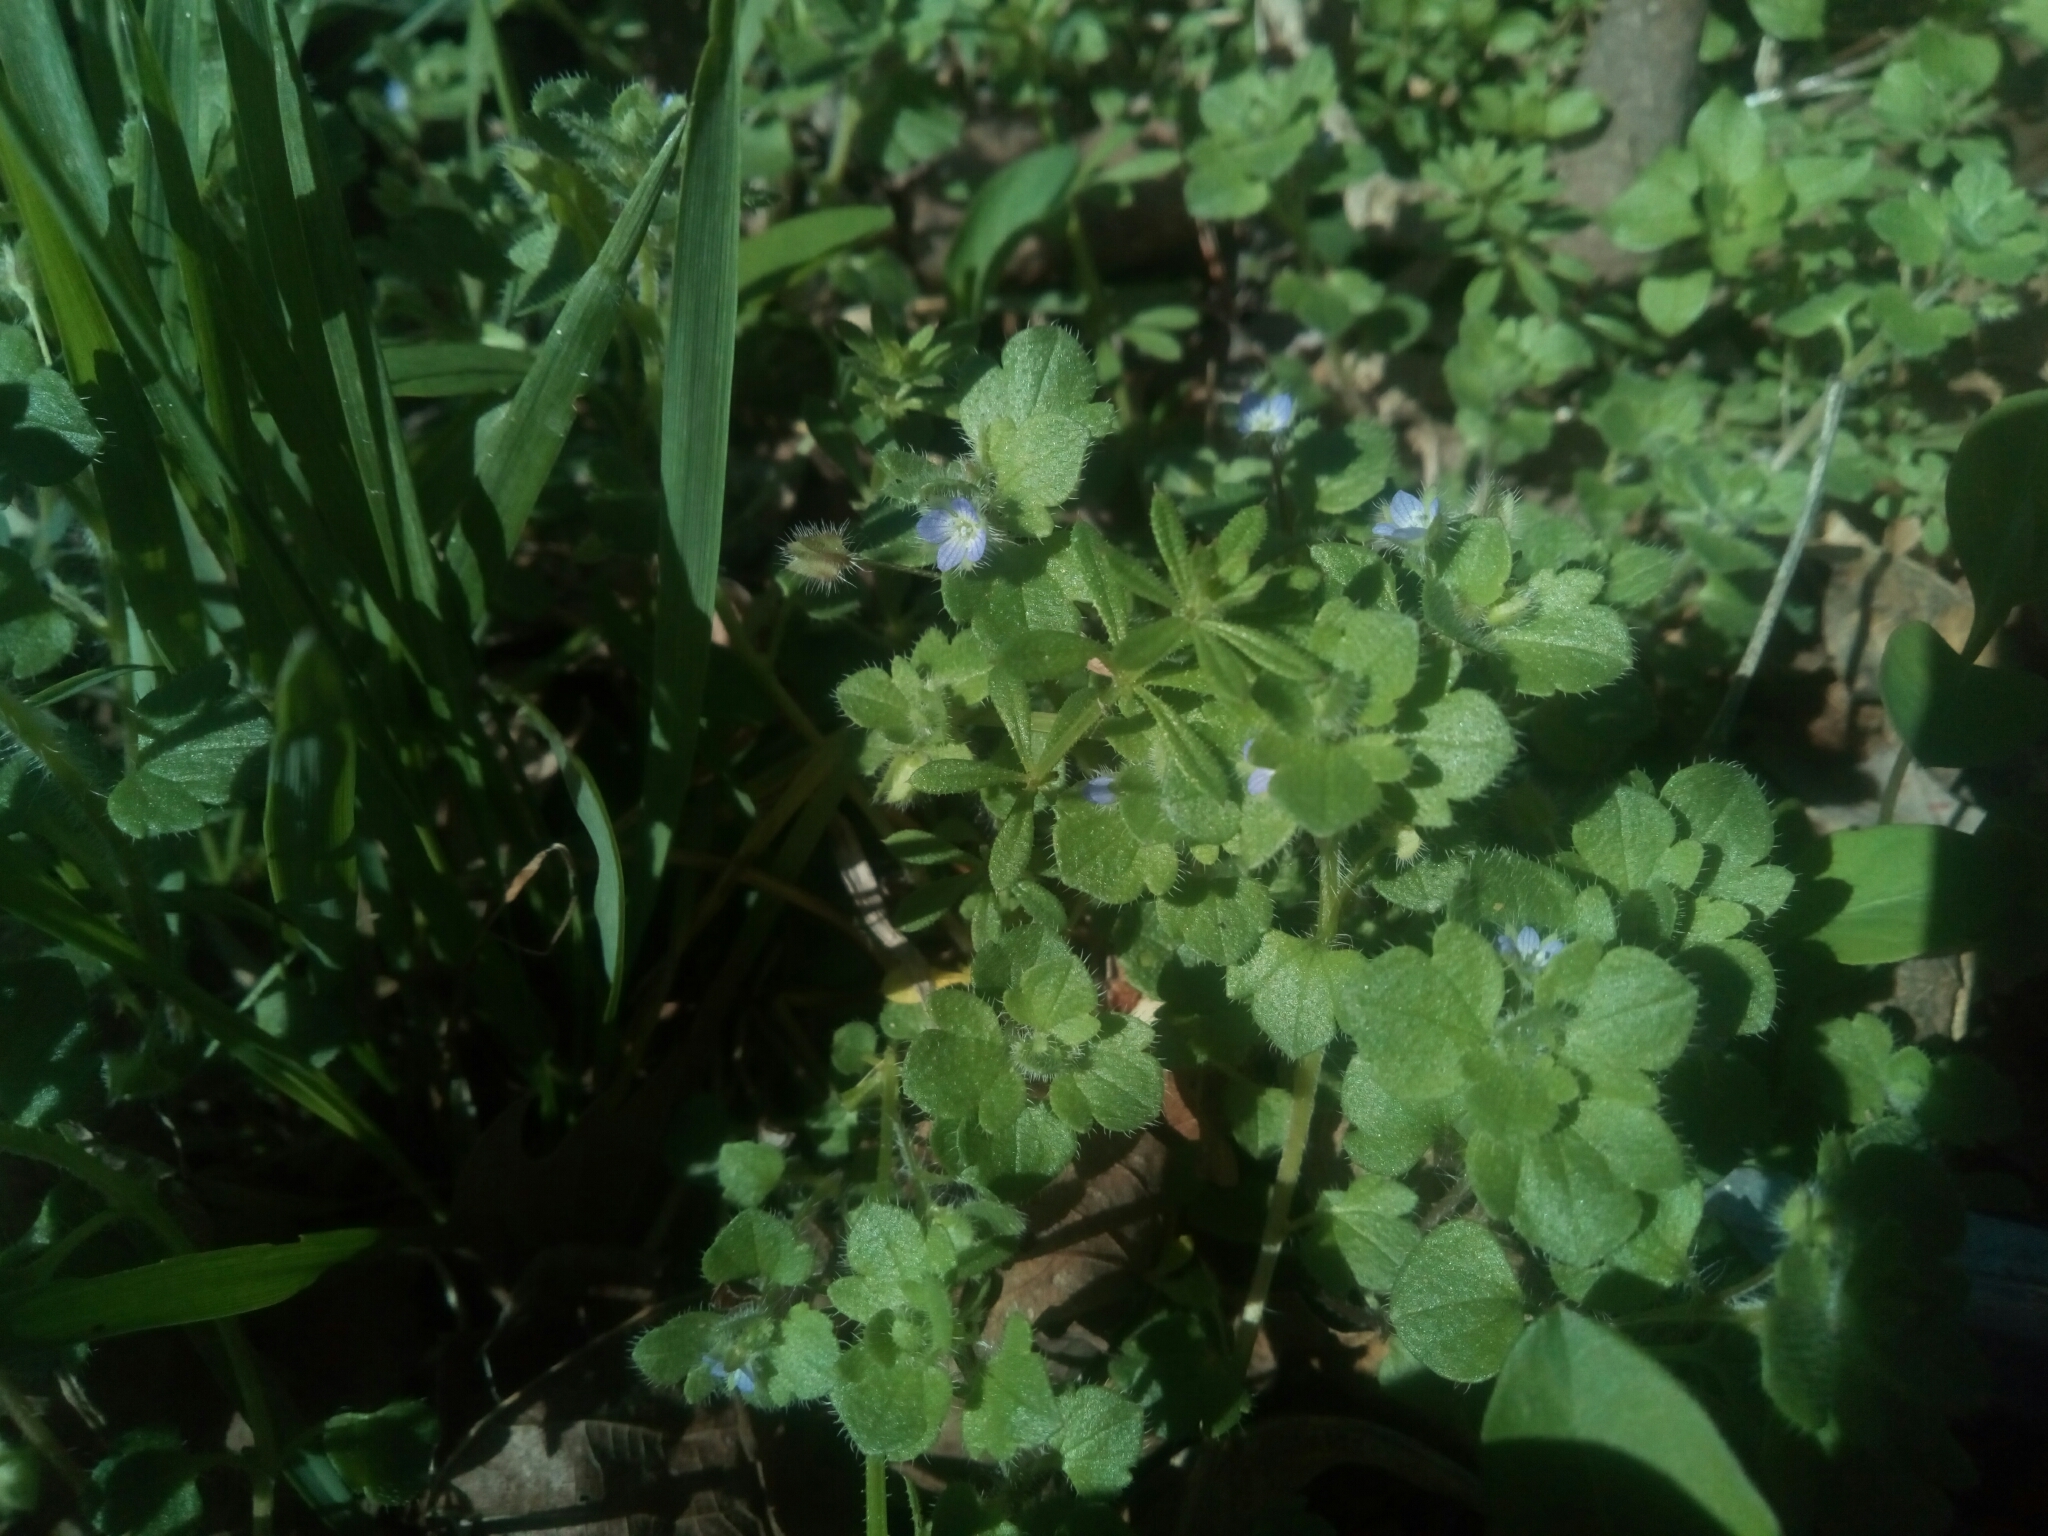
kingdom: Plantae
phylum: Tracheophyta
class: Magnoliopsida
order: Lamiales
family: Plantaginaceae
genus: Veronica
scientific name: Veronica hederifolia
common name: Ivy-leaved speedwell
